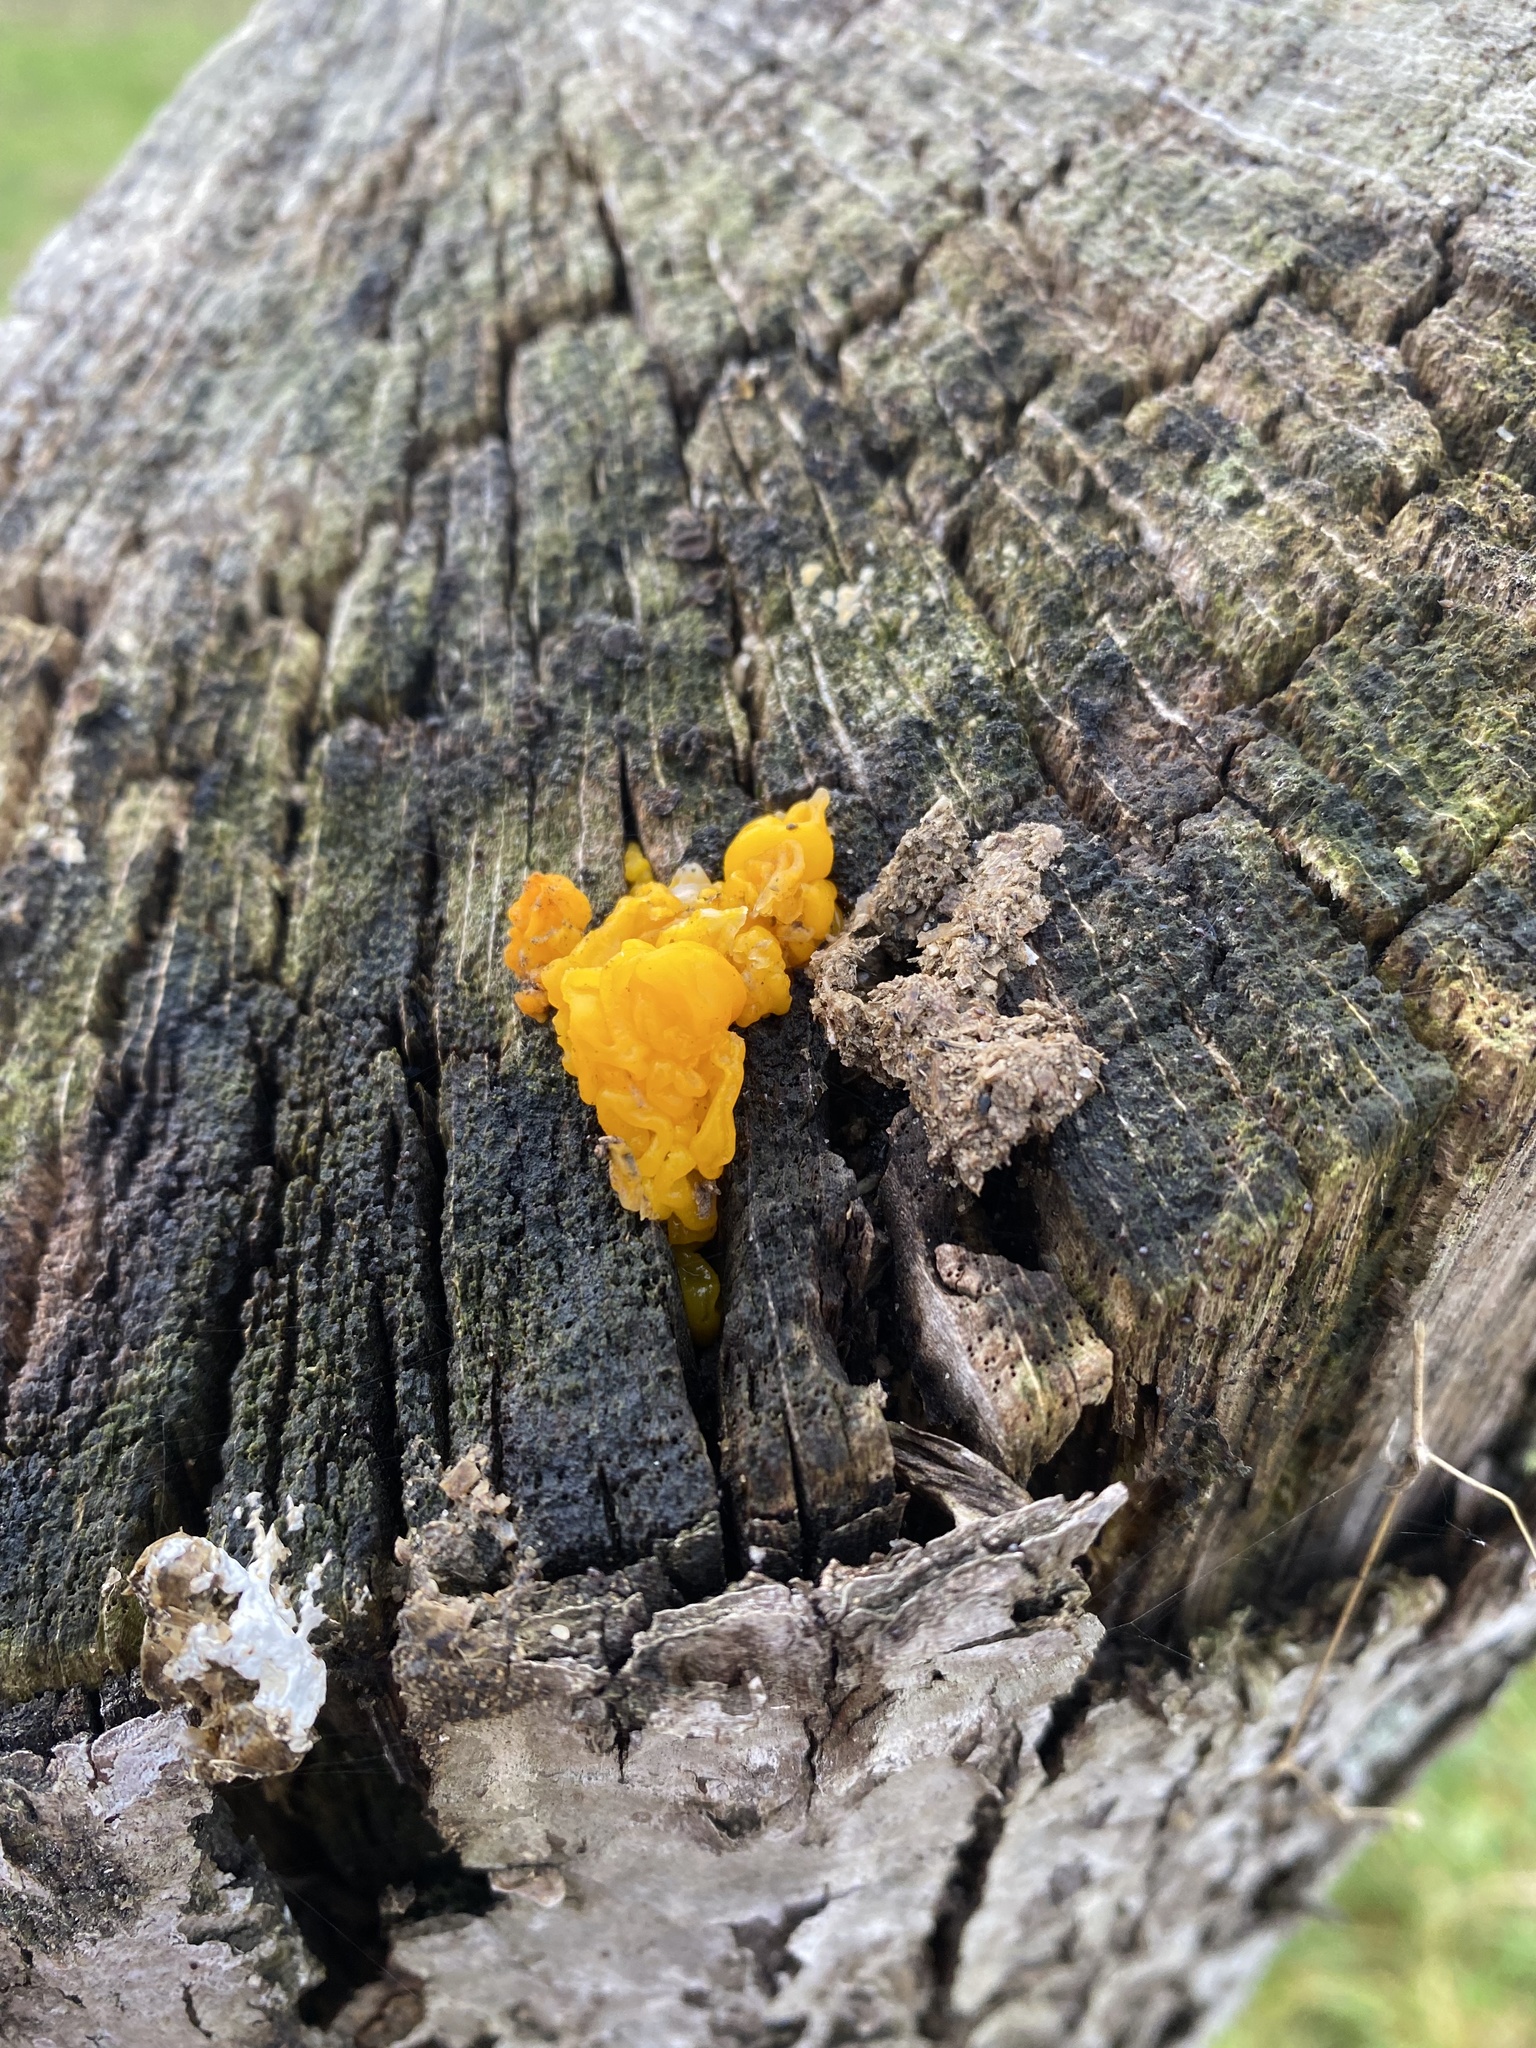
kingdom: Fungi
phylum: Basidiomycota
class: Tremellomycetes
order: Tremellales
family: Tremellaceae
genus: Tremella
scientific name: Tremella mesenterica
